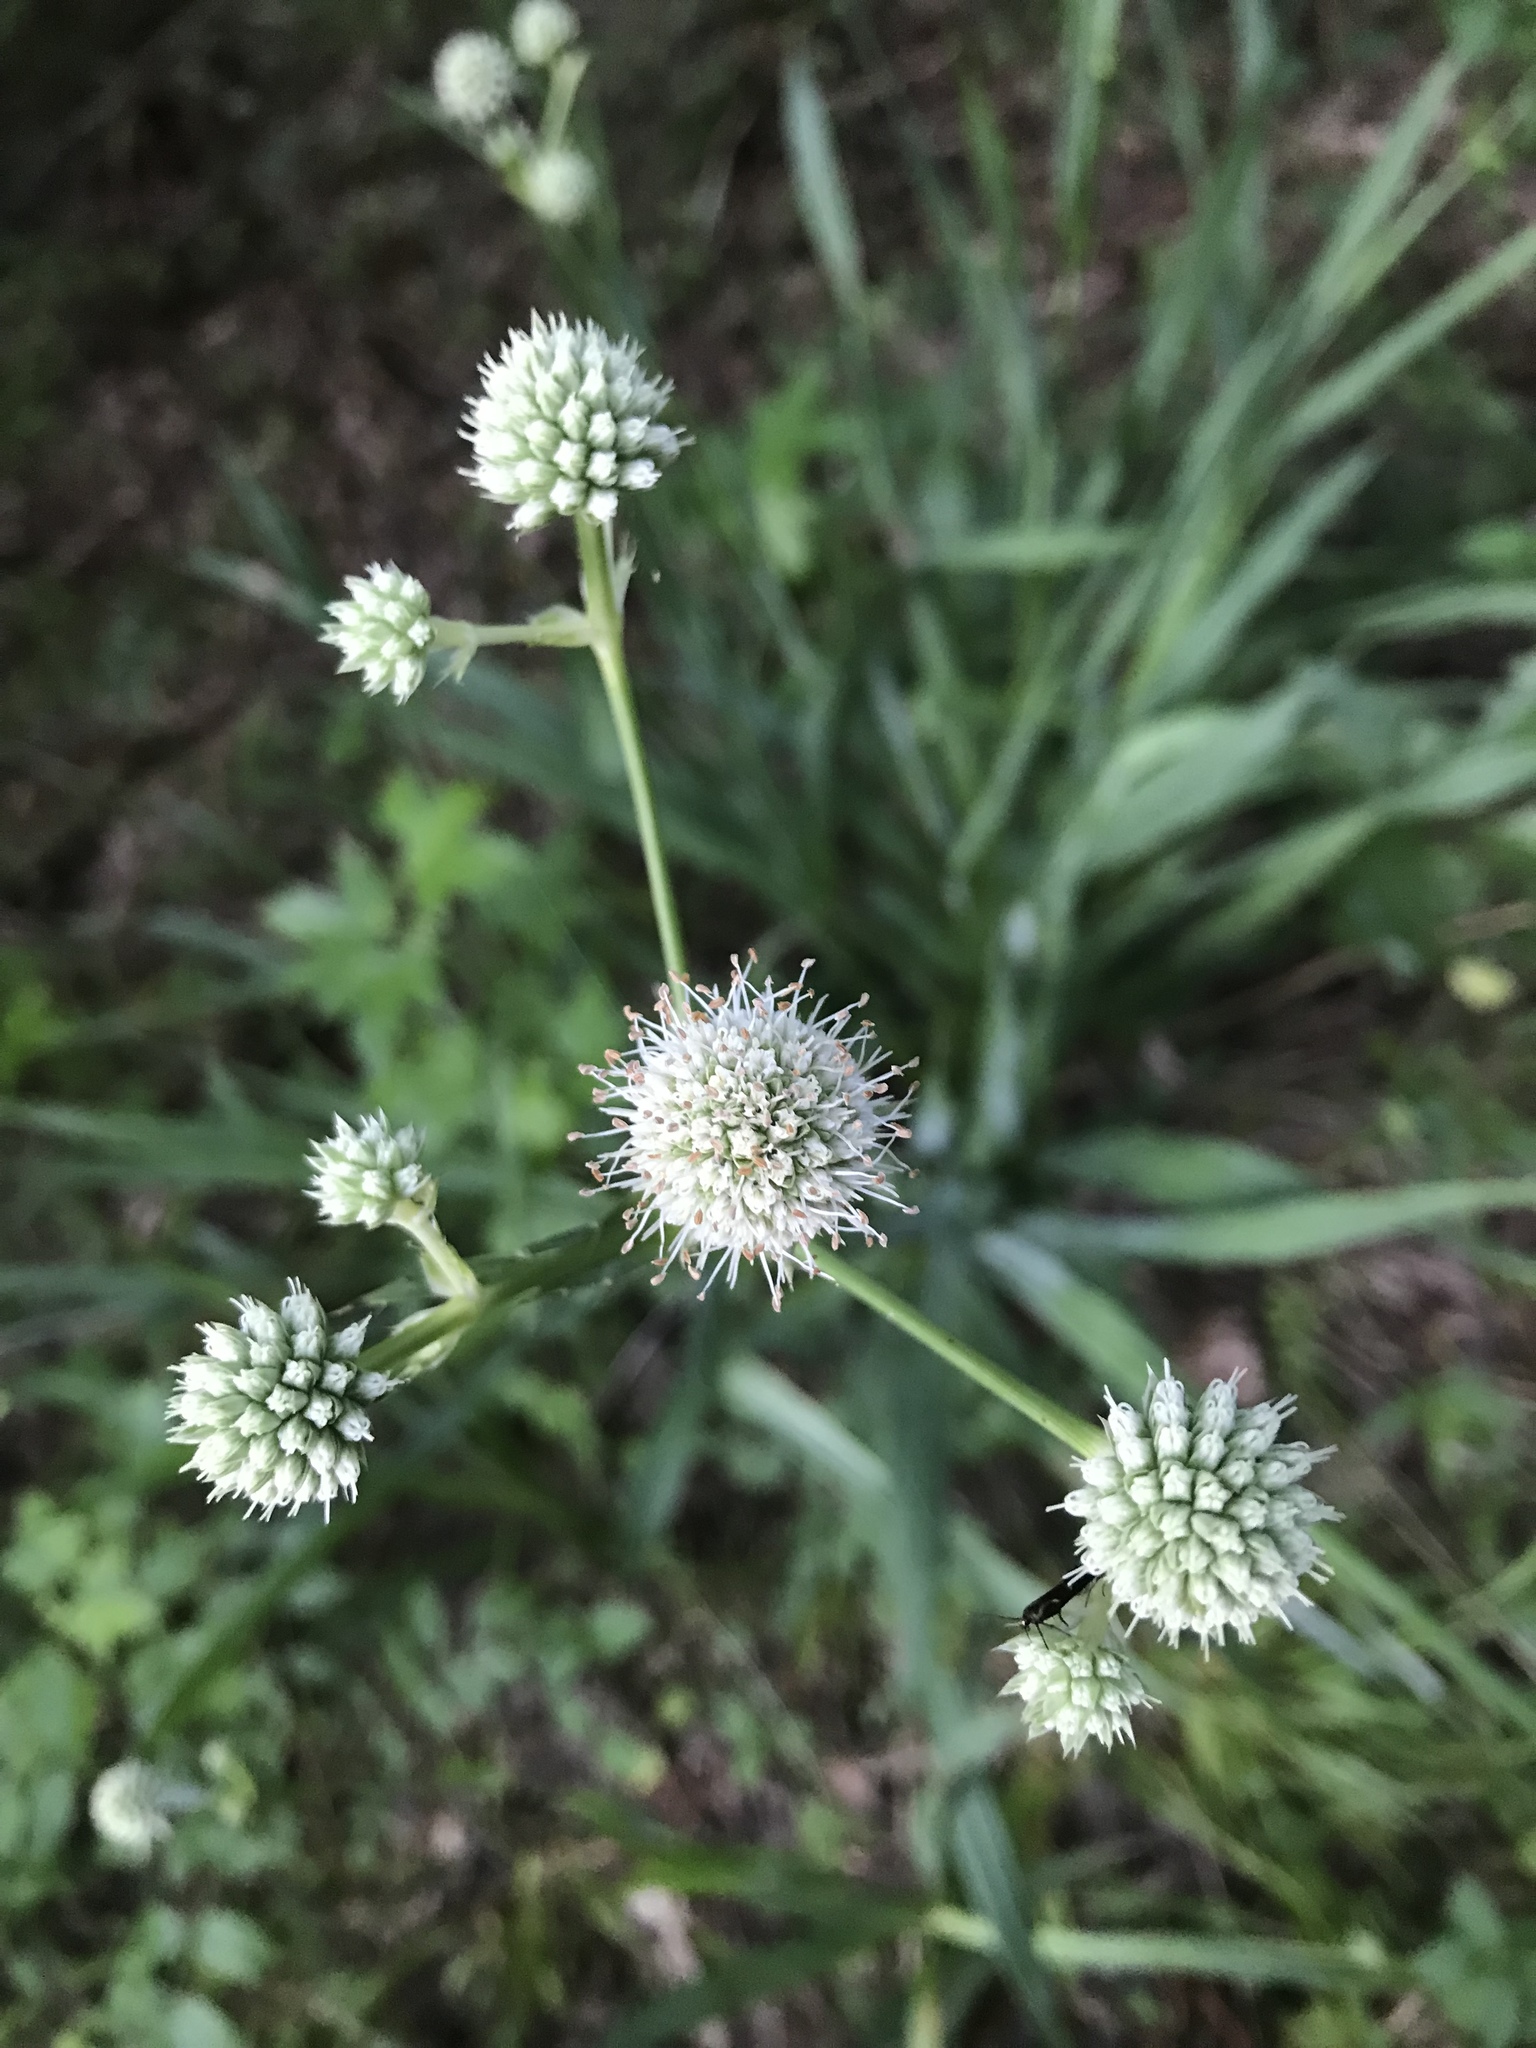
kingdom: Plantae
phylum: Tracheophyta
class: Magnoliopsida
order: Apiales
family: Apiaceae
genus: Eryngium
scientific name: Eryngium yuccifolium
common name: Button eryngo
